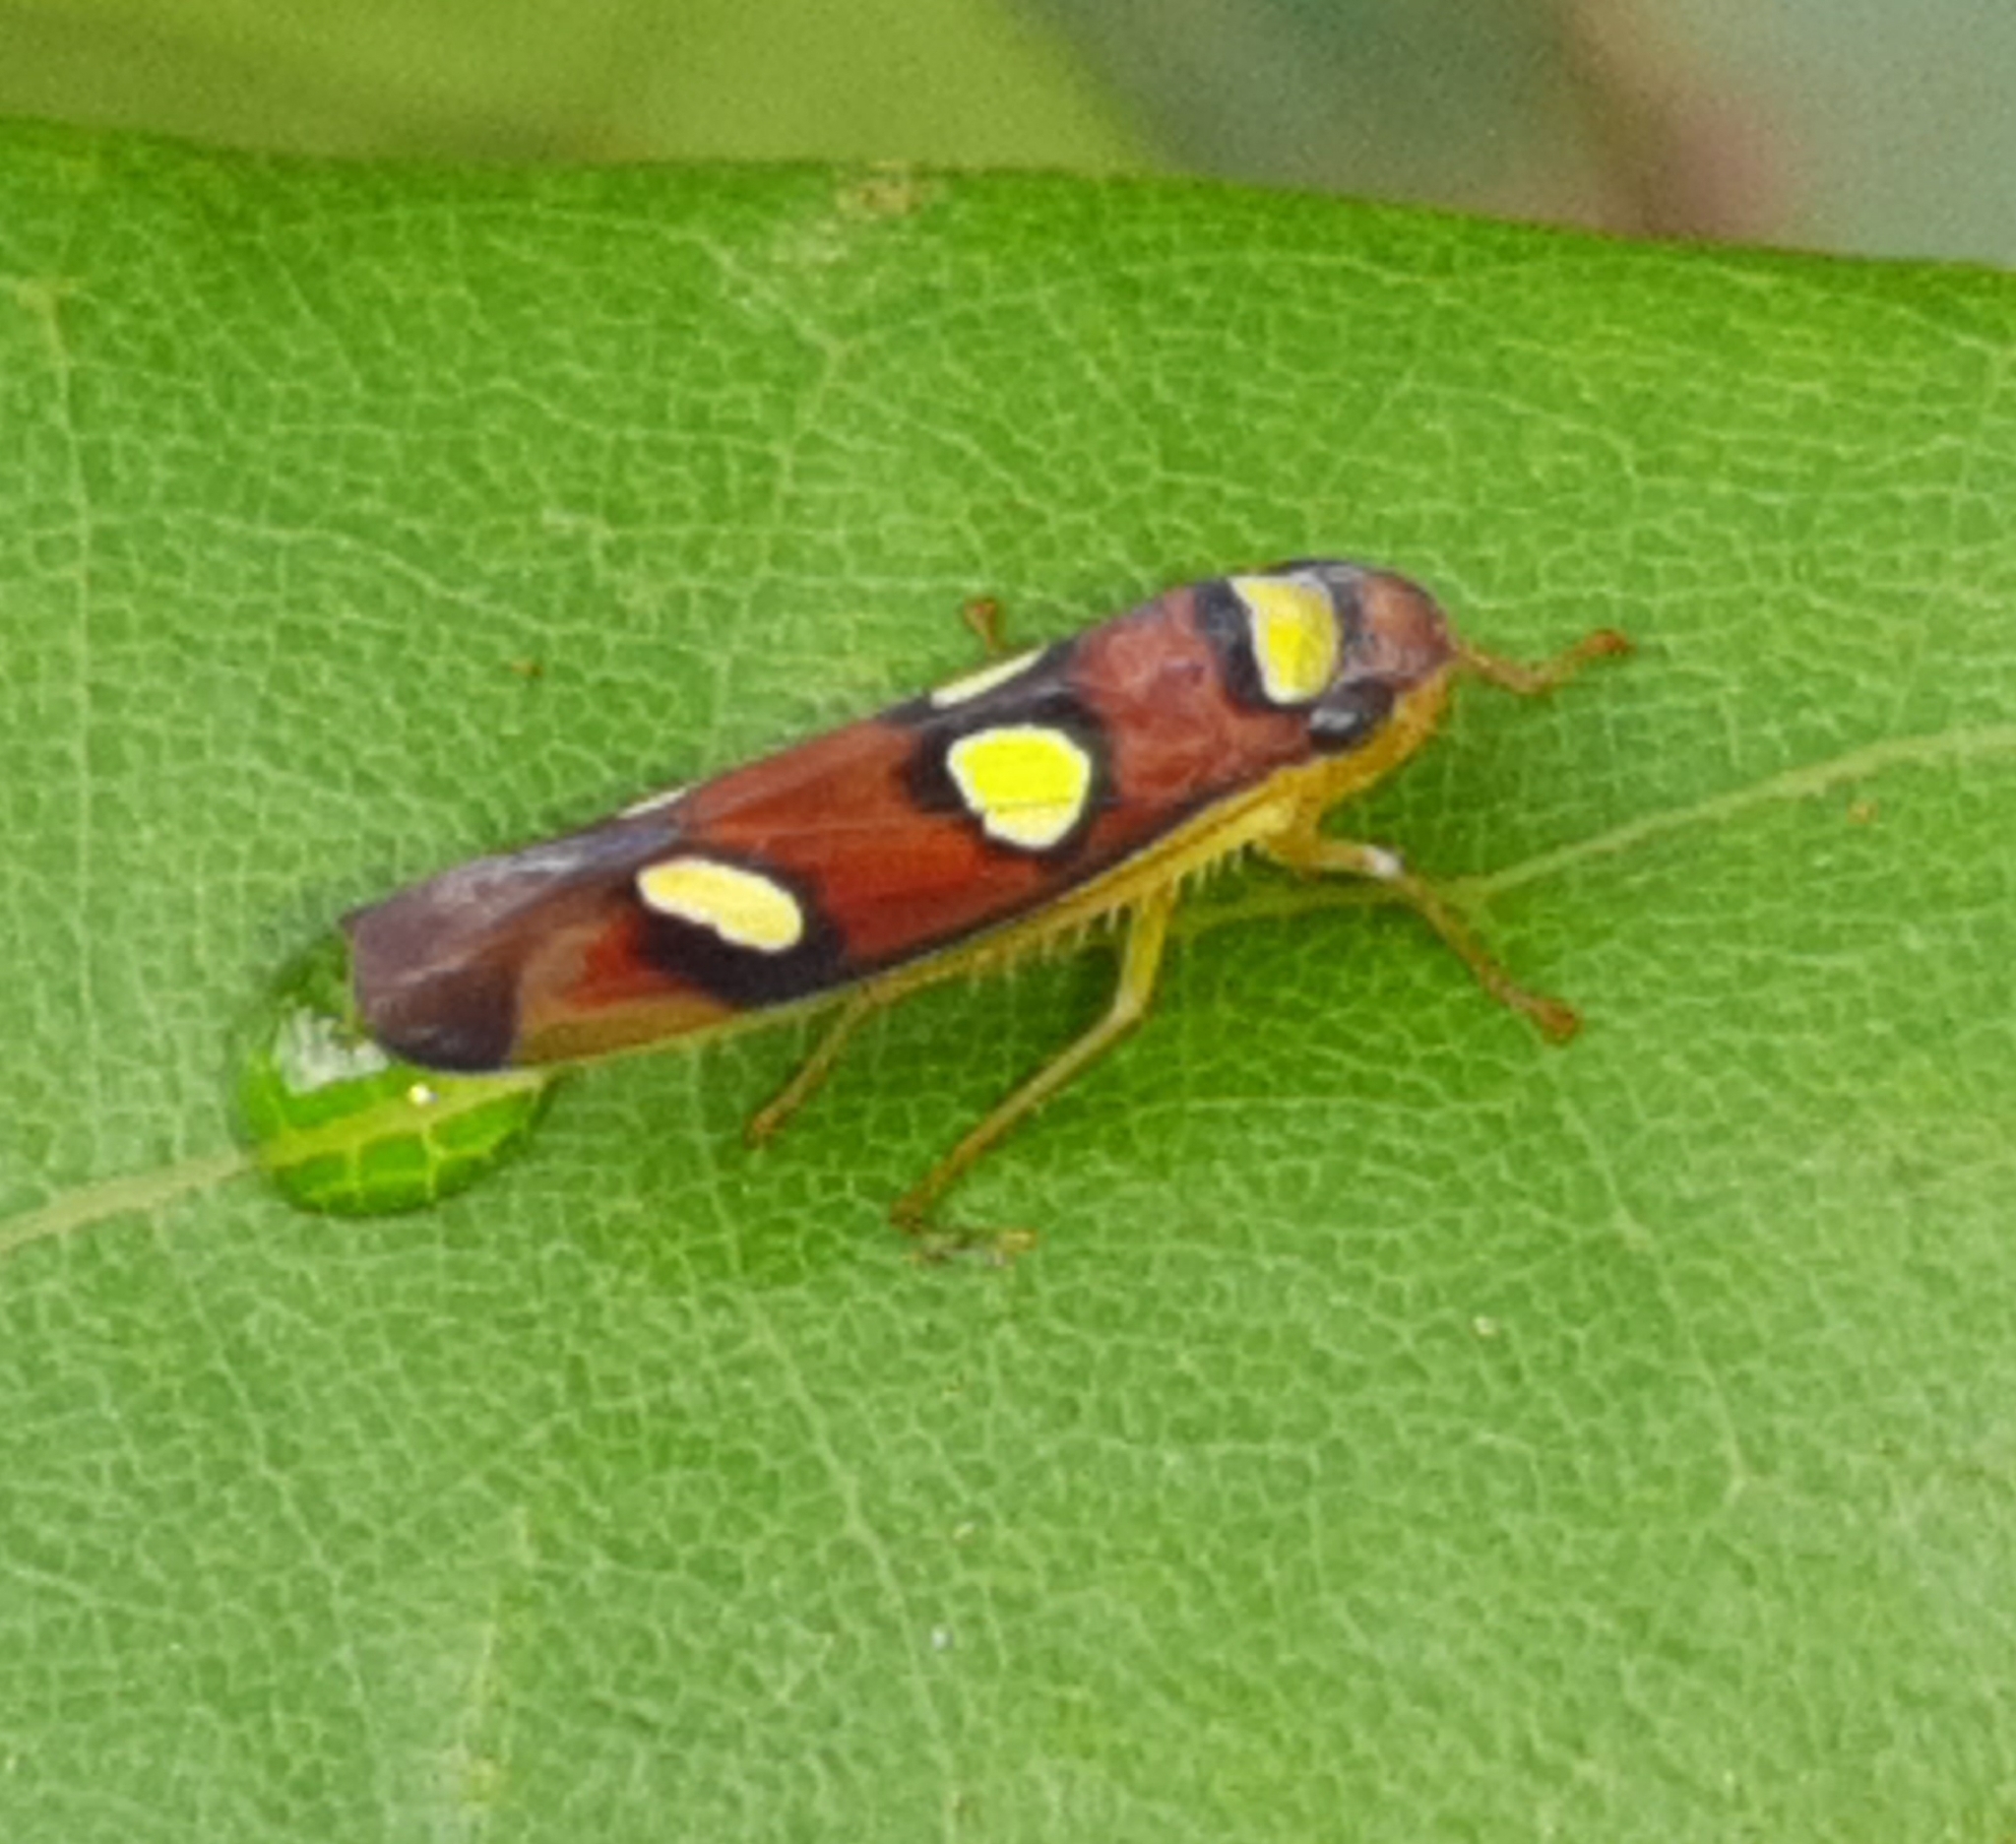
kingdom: Animalia
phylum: Arthropoda
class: Insecta
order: Hemiptera
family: Cicadellidae
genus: Erythrogonia
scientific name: Erythrogonia areolata
